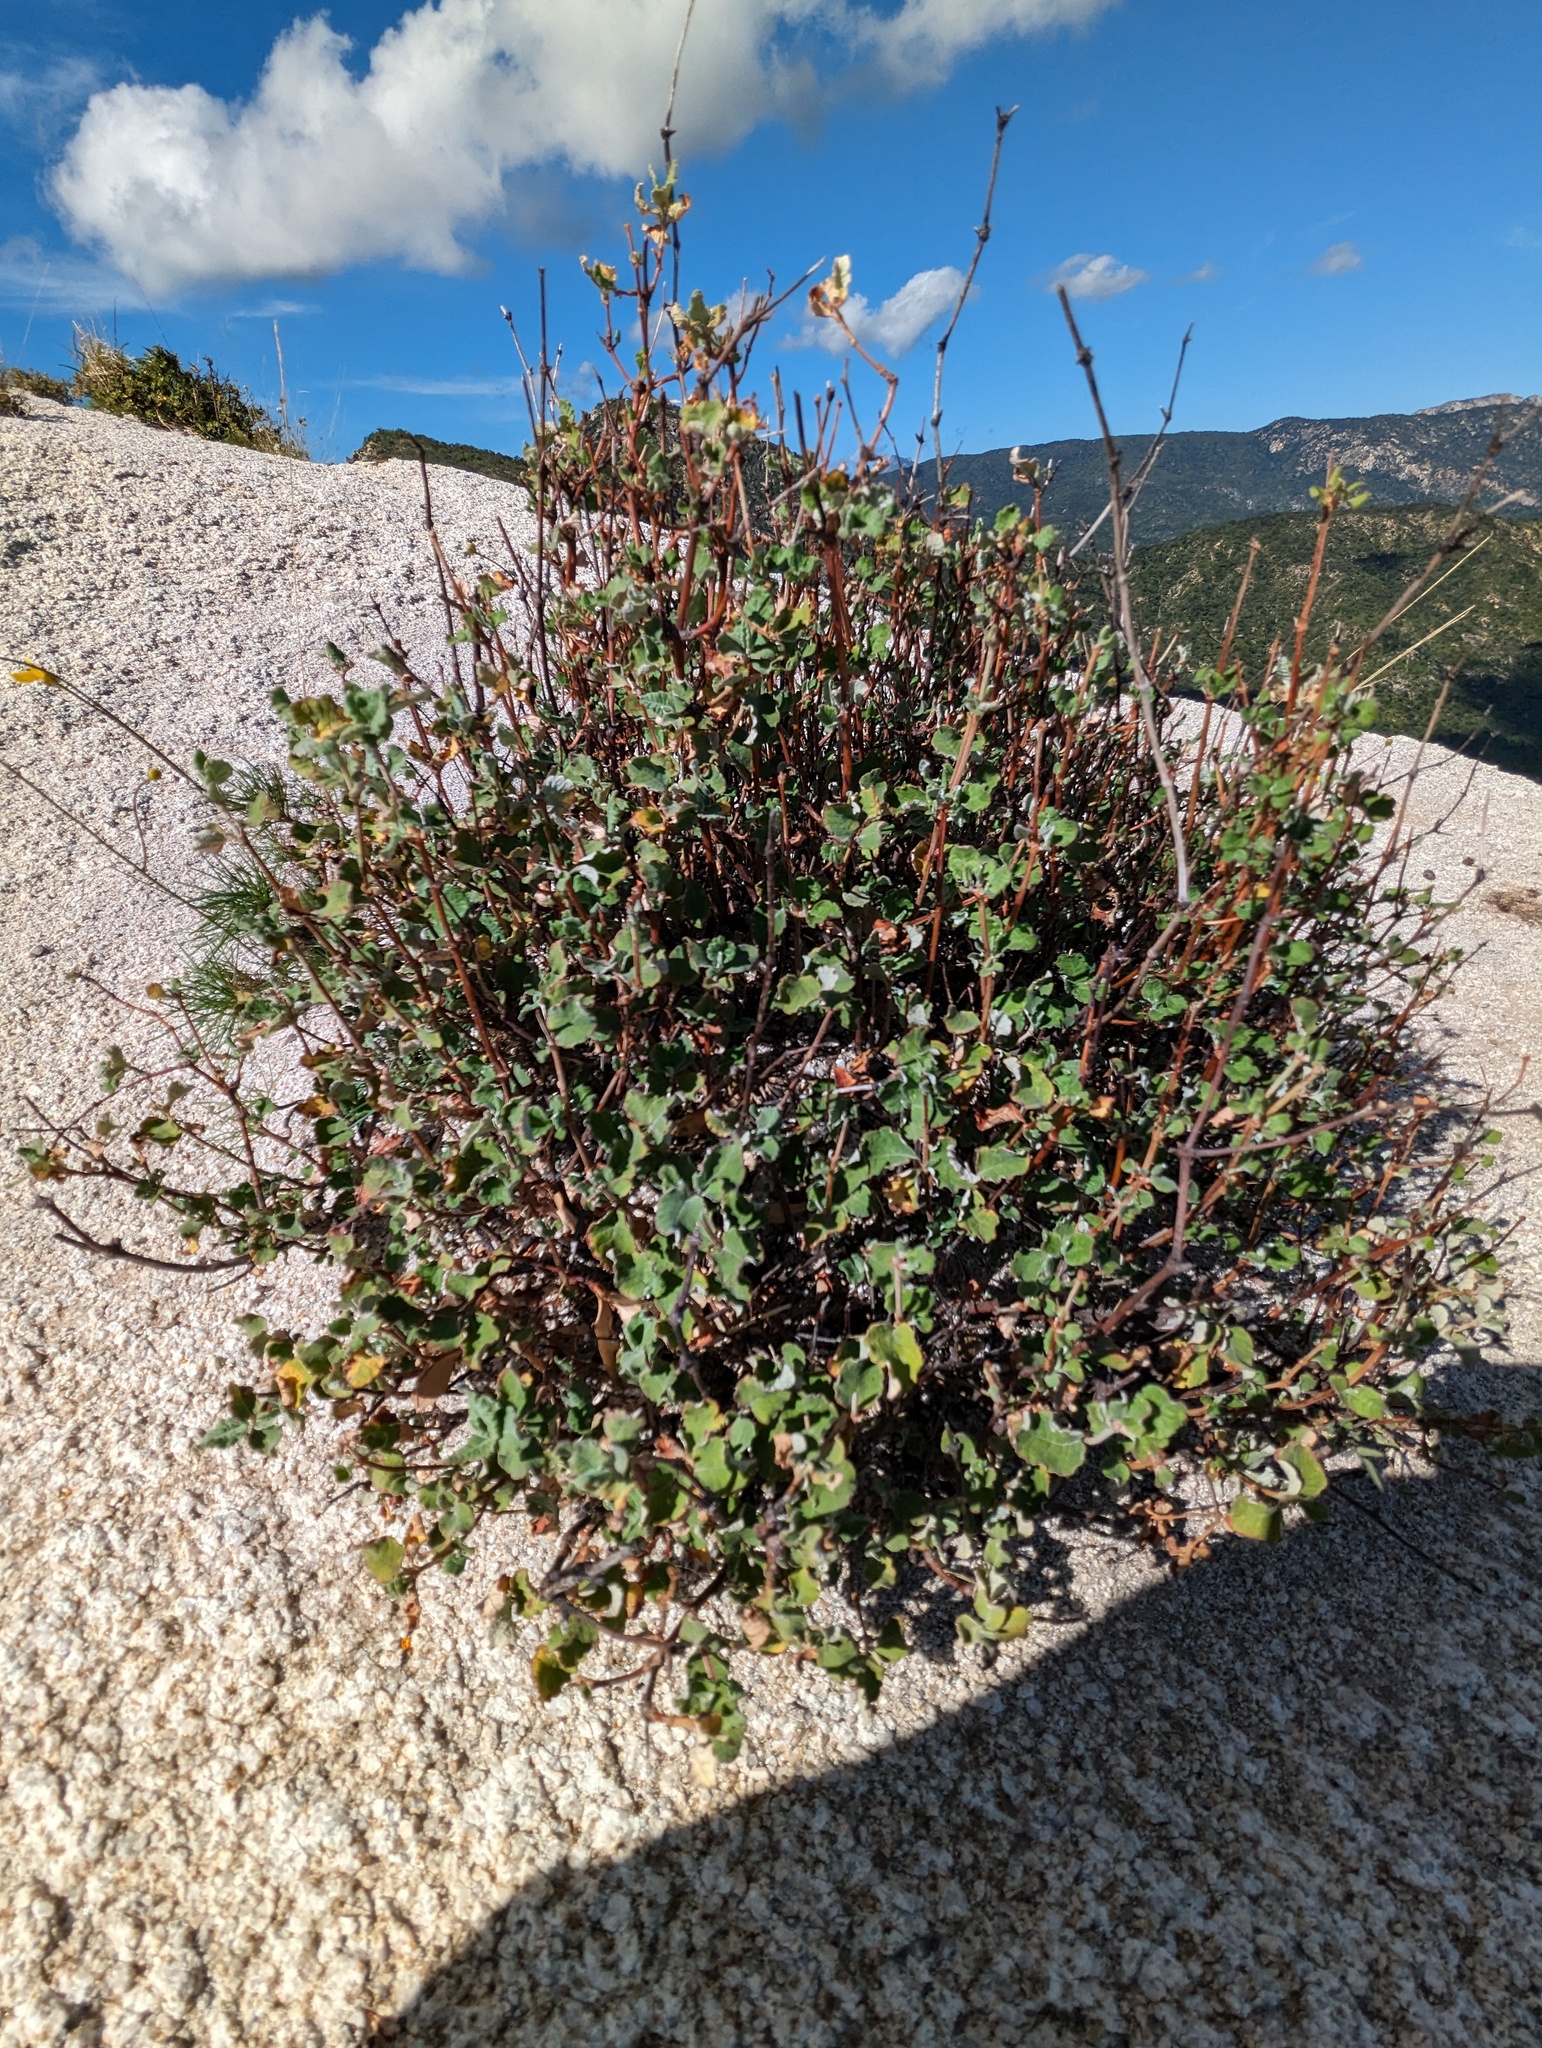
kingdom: Plantae
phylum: Tracheophyta
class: Magnoliopsida
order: Caryophyllales
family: Polygonaceae
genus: Eriogonum
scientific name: Eriogonum calaverense
